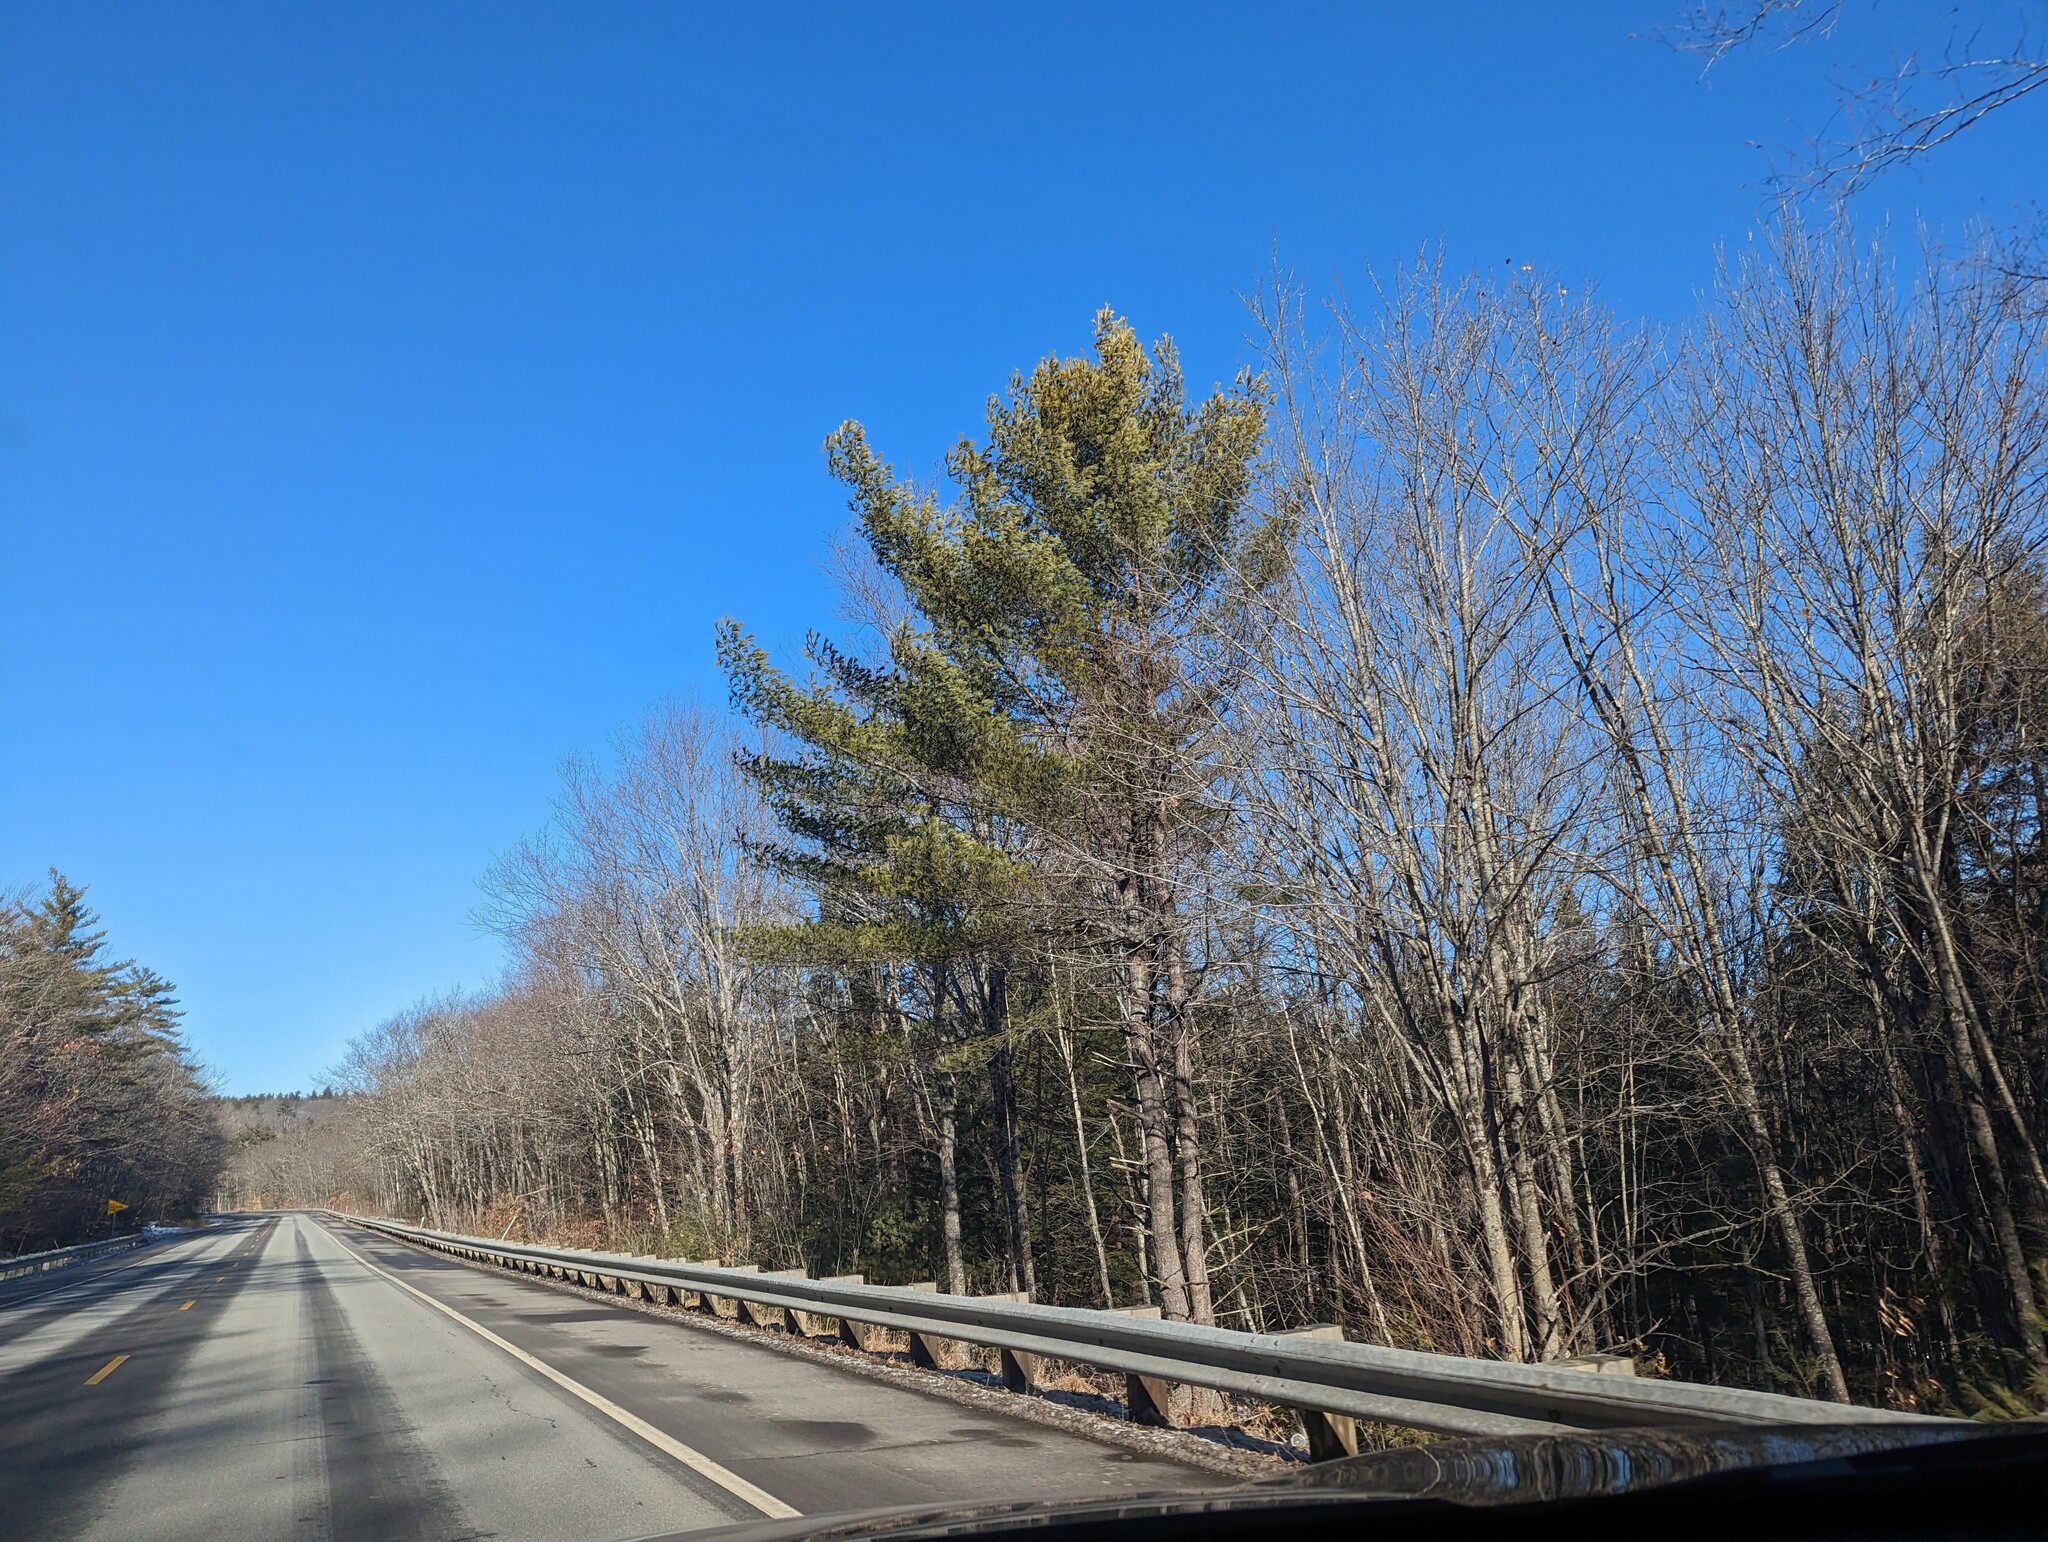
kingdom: Plantae
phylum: Tracheophyta
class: Pinopsida
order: Pinales
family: Pinaceae
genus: Pinus
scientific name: Pinus strobus
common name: Weymouth pine
